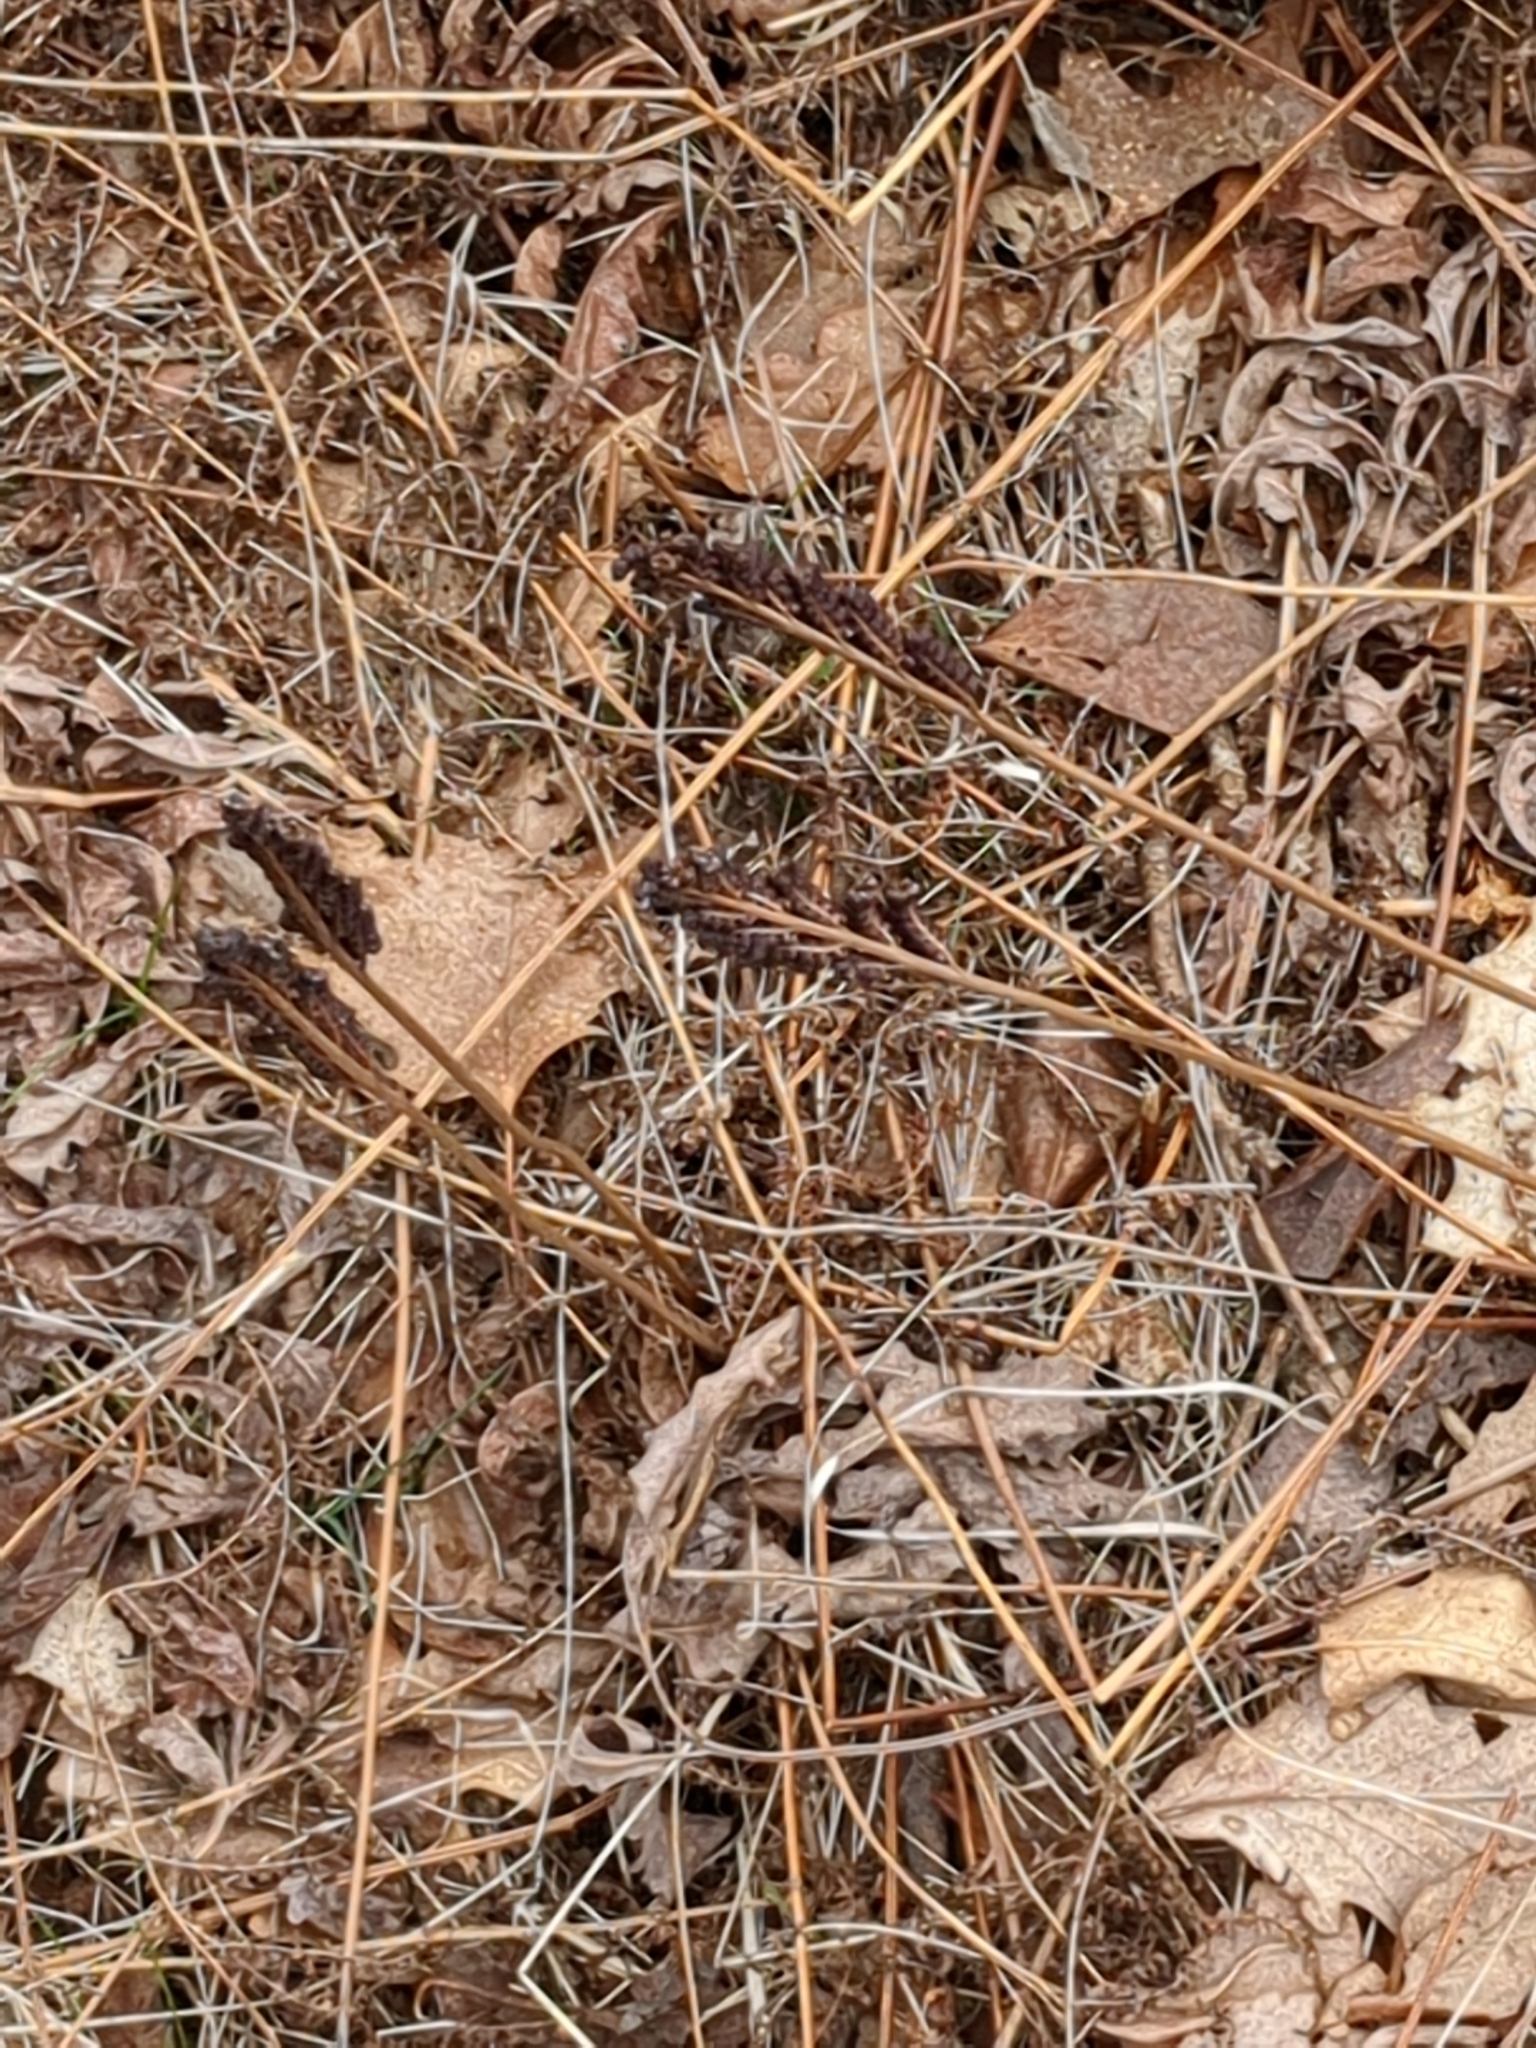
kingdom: Plantae
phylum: Tracheophyta
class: Polypodiopsida
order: Polypodiales
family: Onocleaceae
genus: Onoclea
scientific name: Onoclea sensibilis
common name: Sensitive fern
